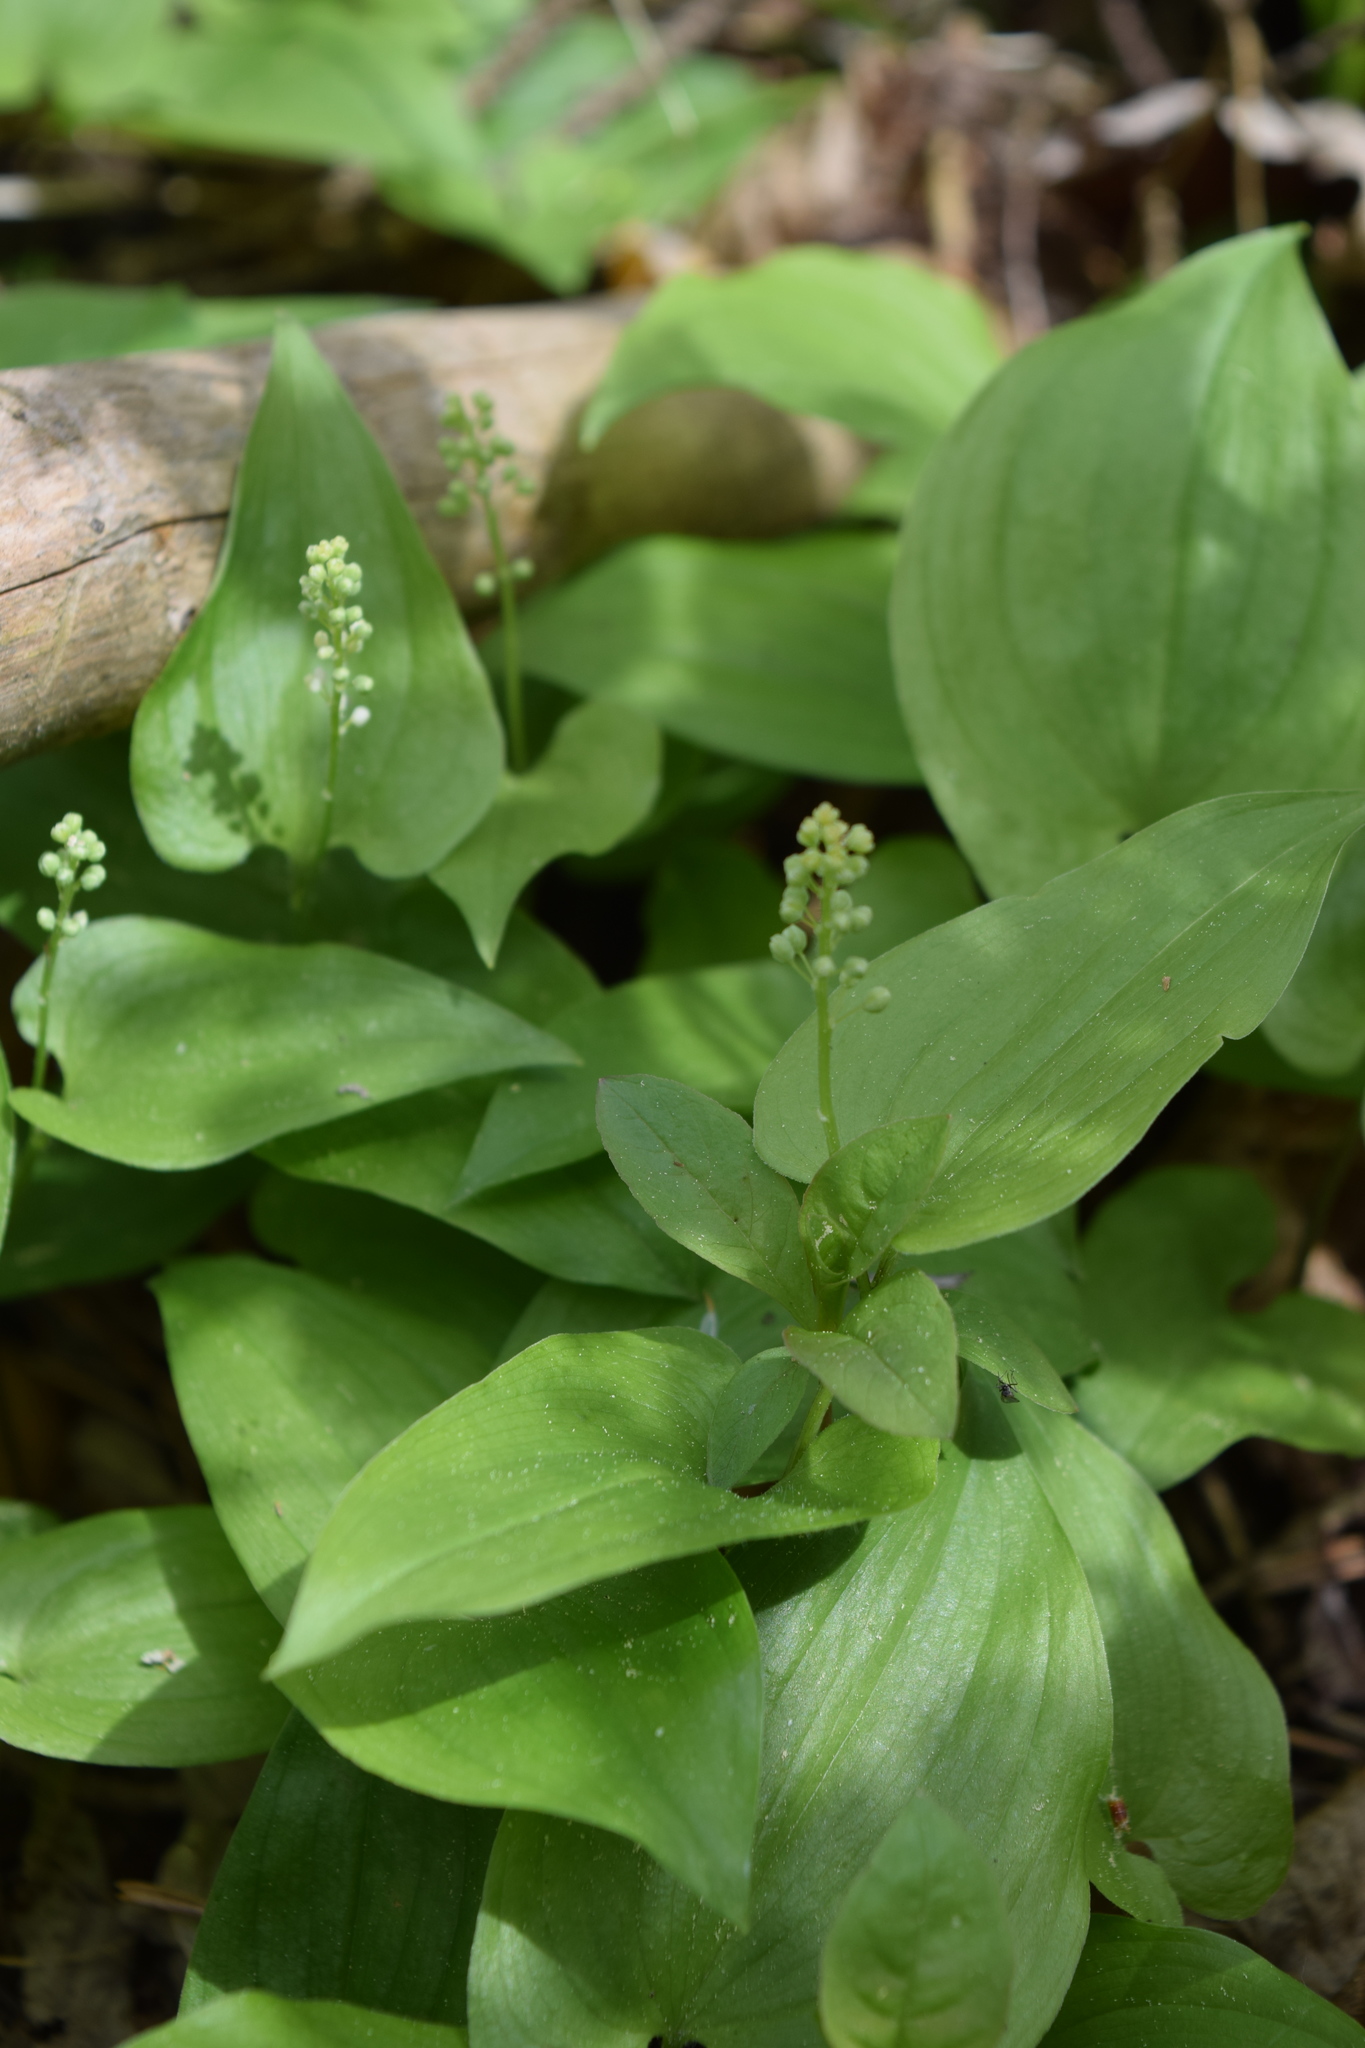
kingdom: Plantae
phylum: Tracheophyta
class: Liliopsida
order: Asparagales
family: Asparagaceae
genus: Maianthemum
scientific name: Maianthemum bifolium
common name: May lily
